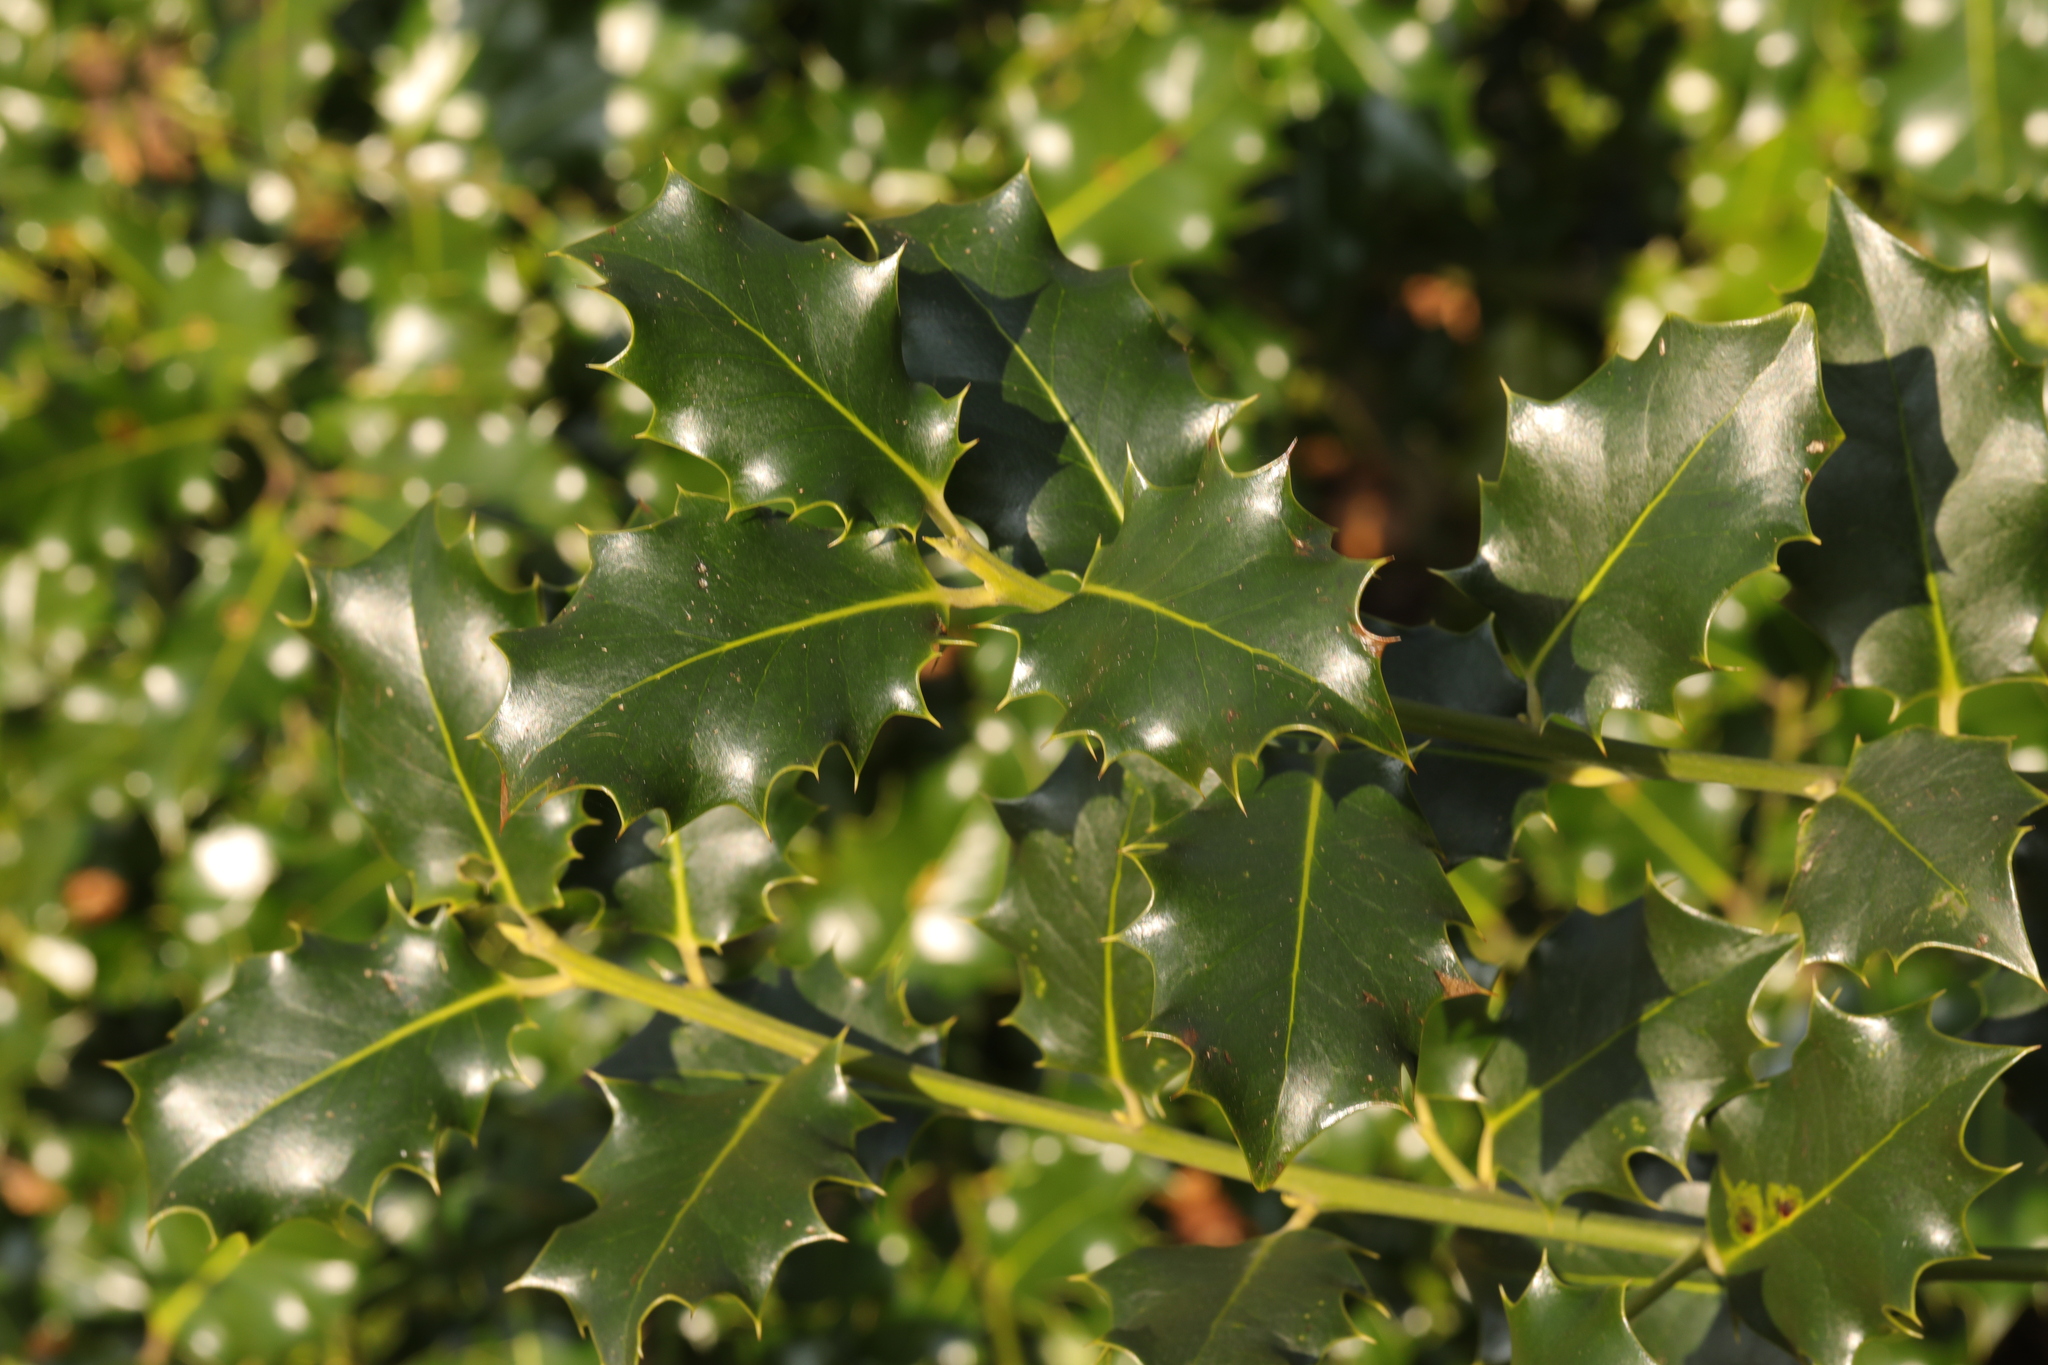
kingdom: Plantae
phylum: Tracheophyta
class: Magnoliopsida
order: Aquifoliales
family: Aquifoliaceae
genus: Ilex
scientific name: Ilex aquifolium
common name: English holly
